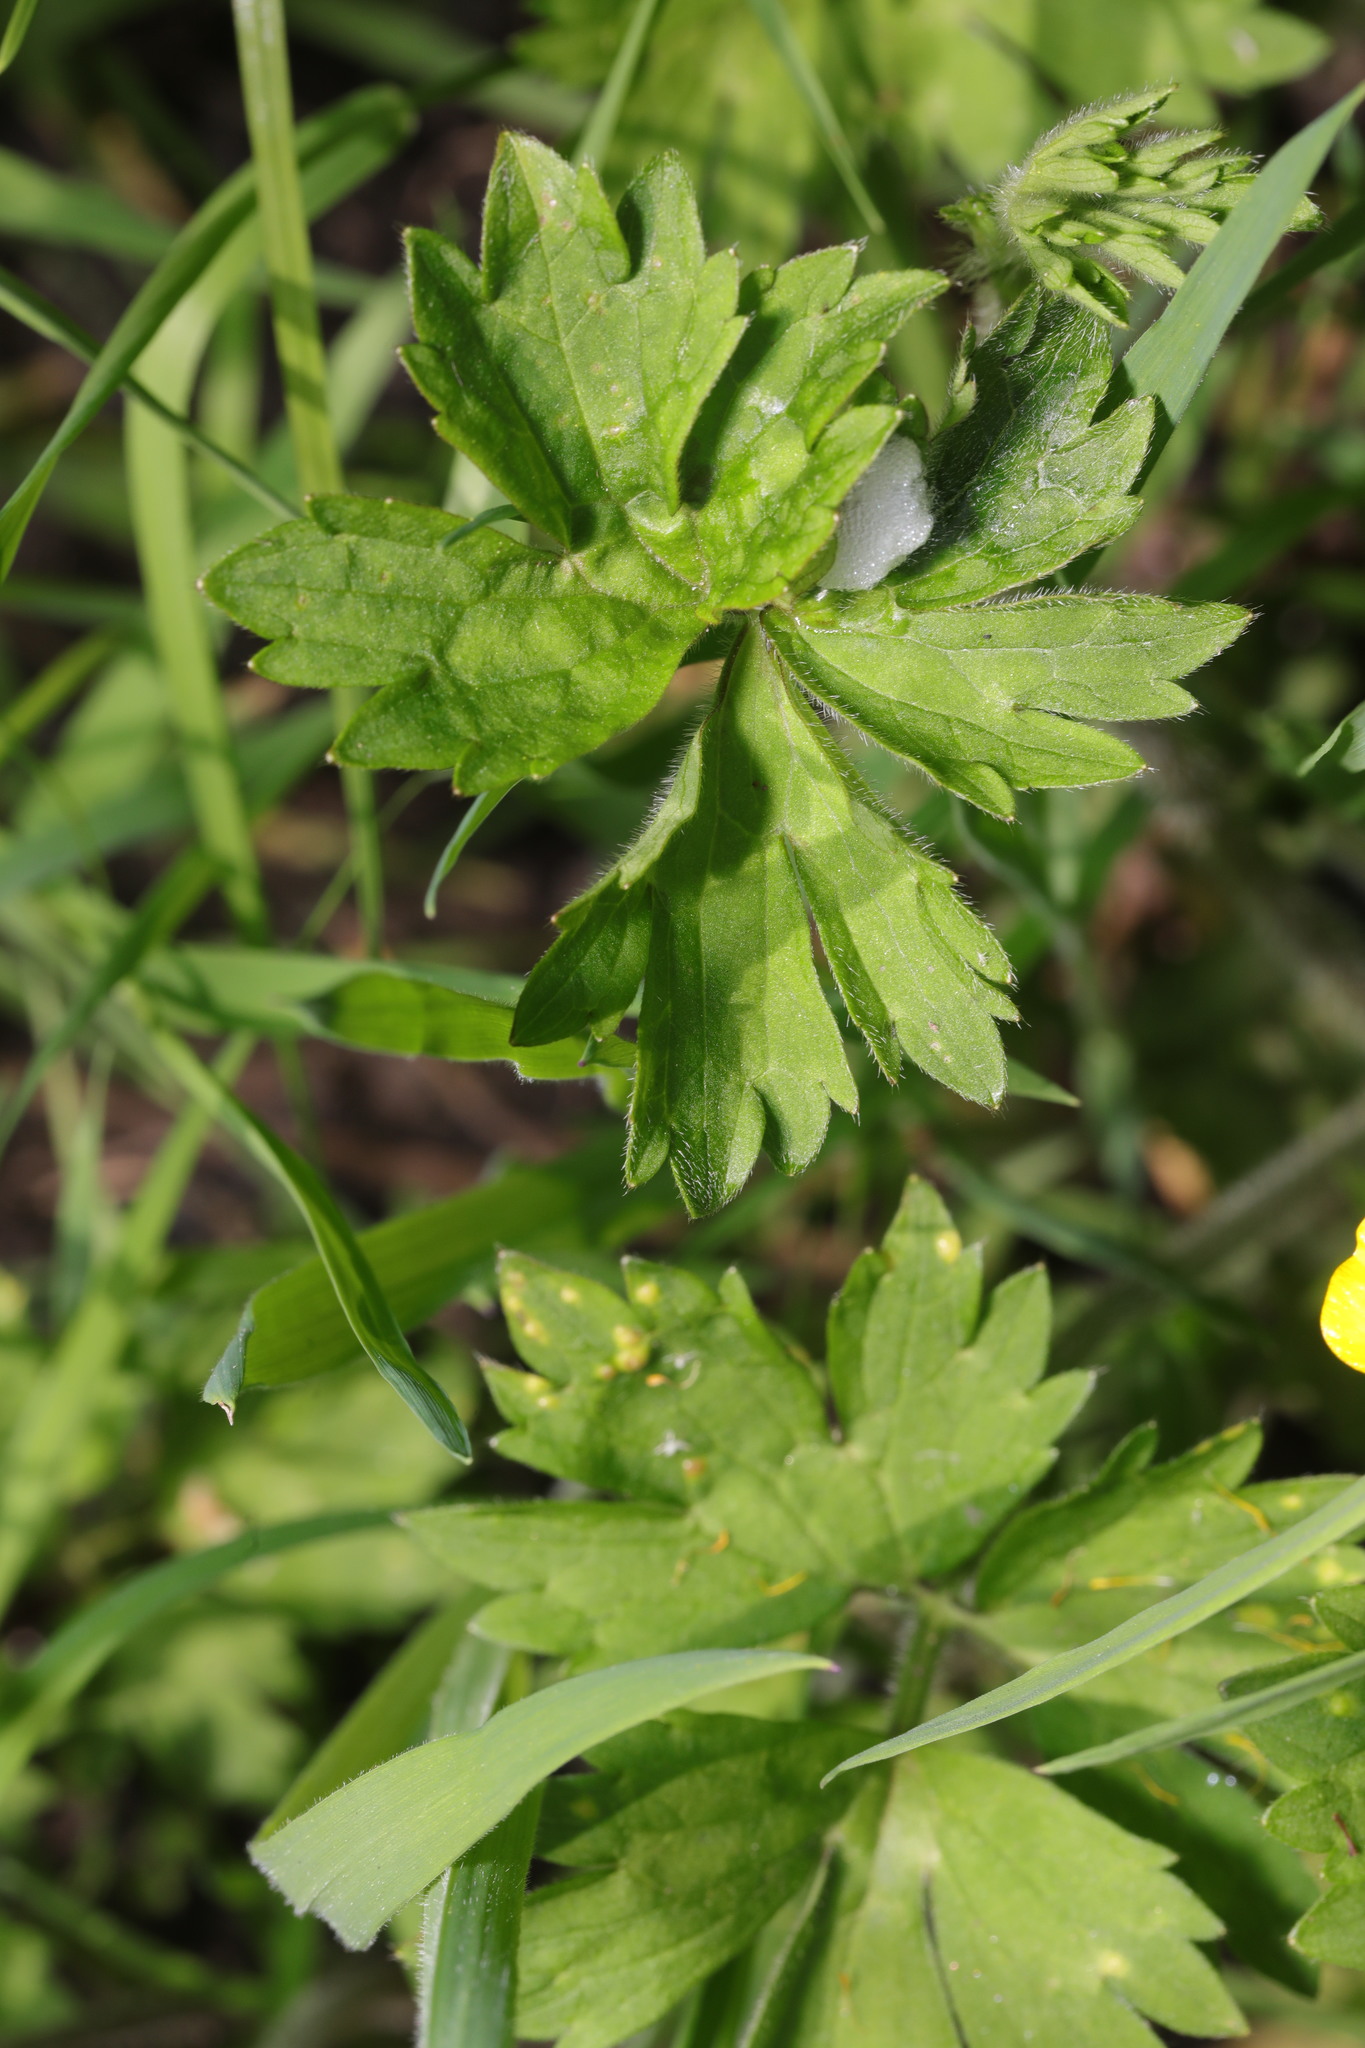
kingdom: Plantae
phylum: Tracheophyta
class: Magnoliopsida
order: Ranunculales
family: Ranunculaceae
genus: Ranunculus
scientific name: Ranunculus repens
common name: Creeping buttercup
